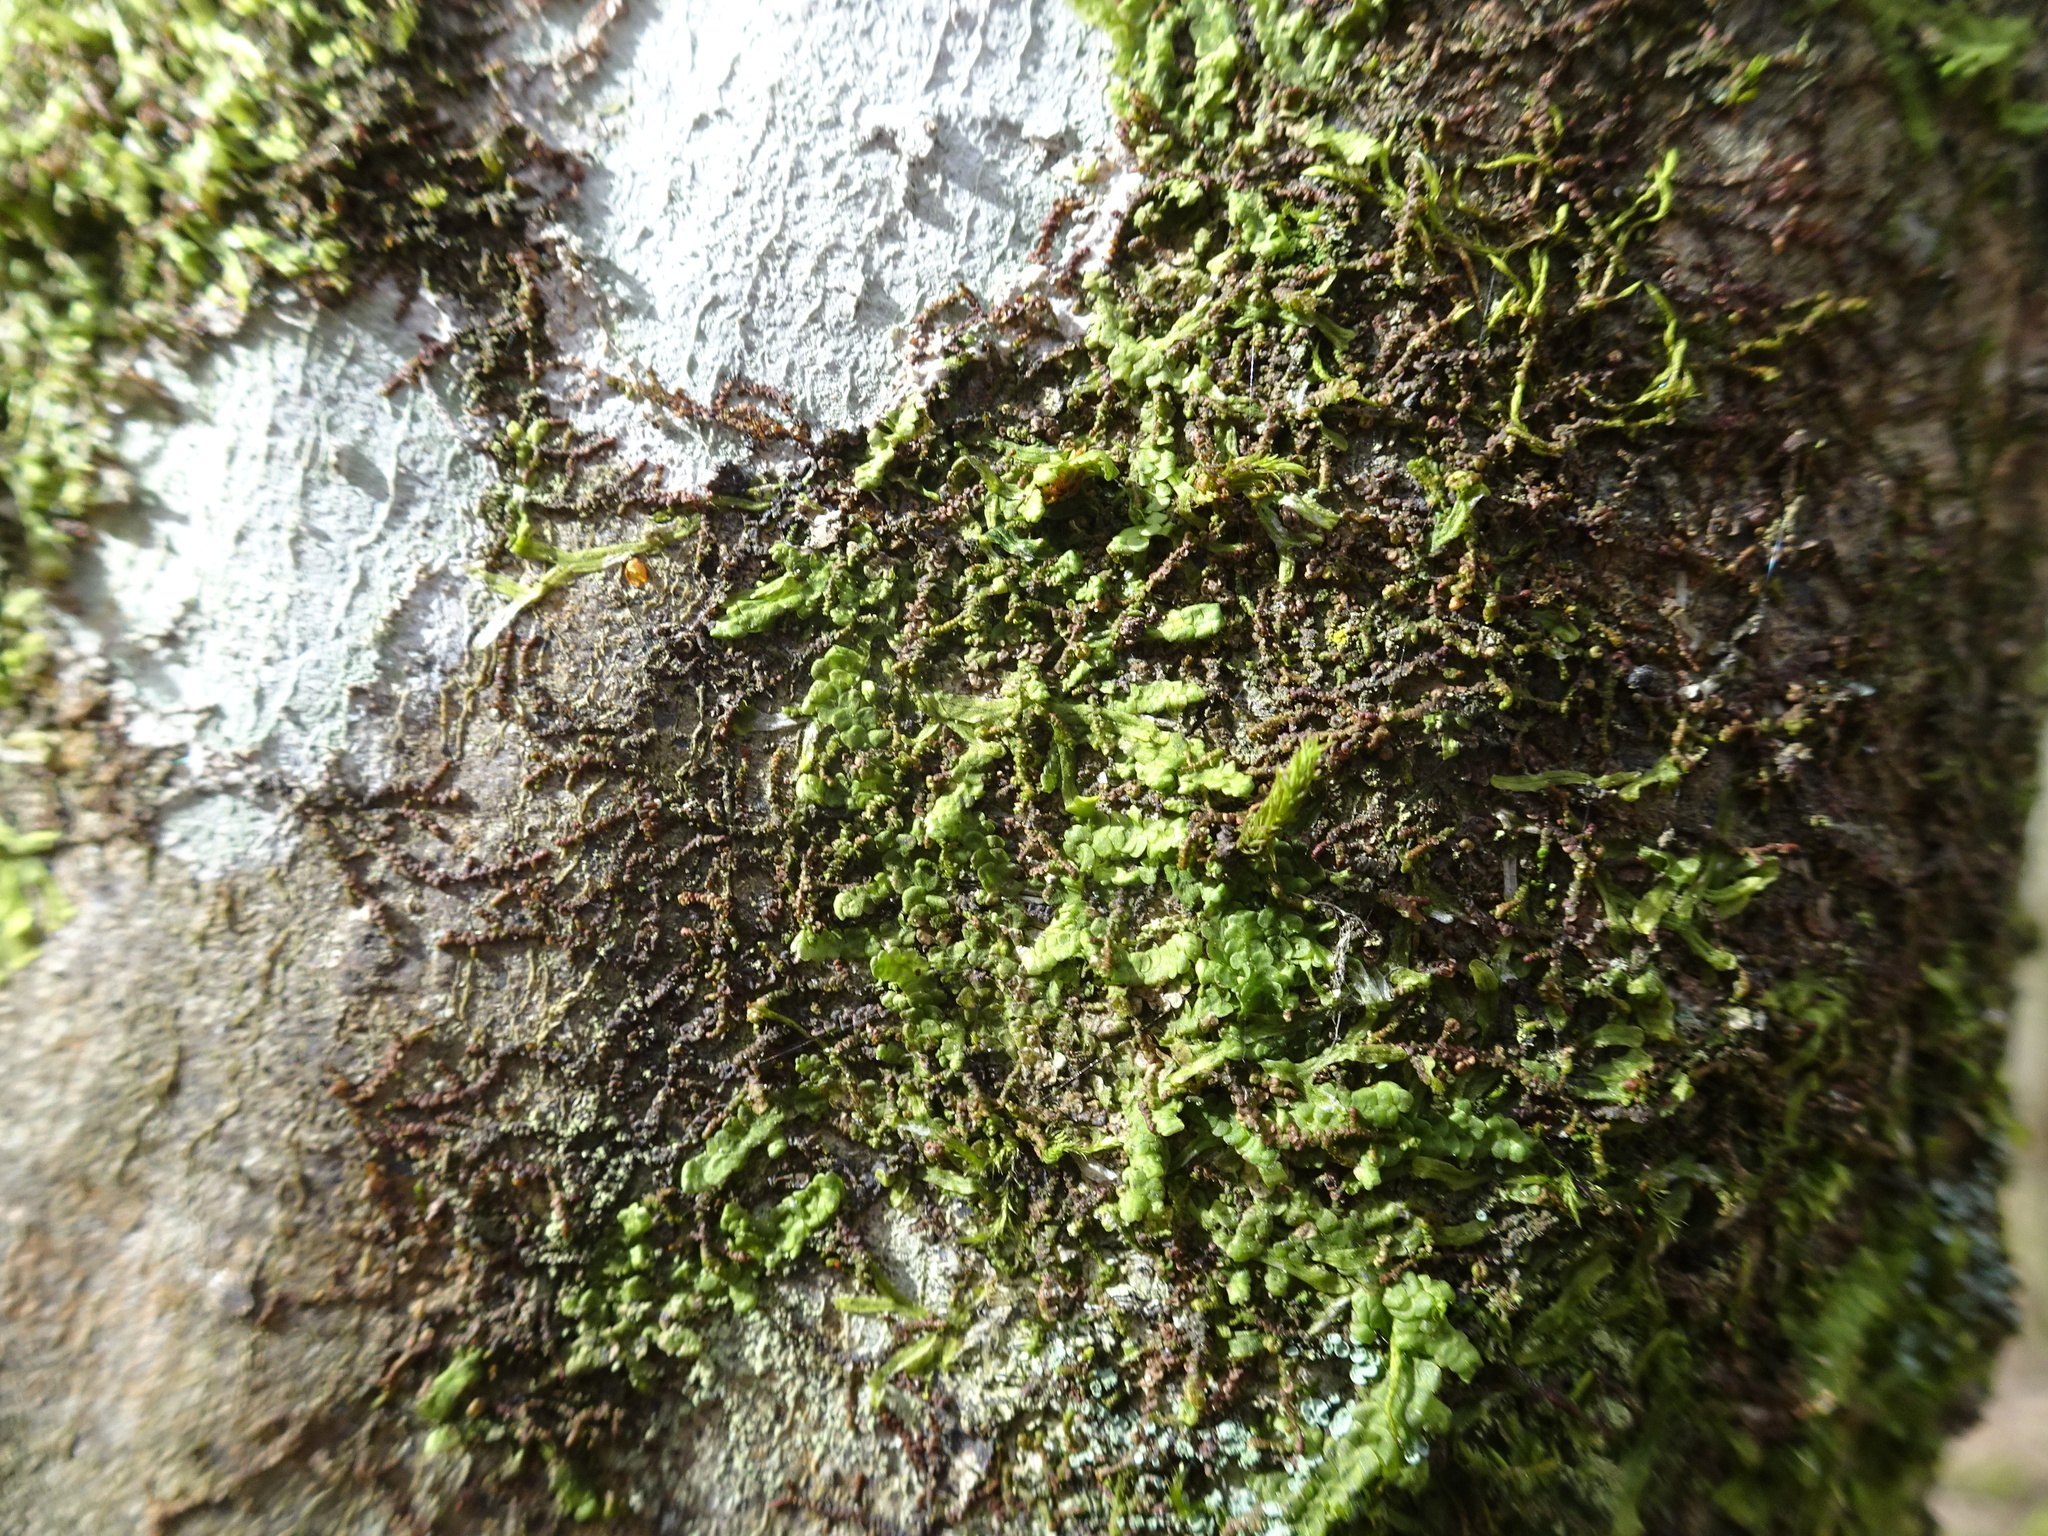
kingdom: Plantae
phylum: Marchantiophyta
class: Jungermanniopsida
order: Porellales
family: Radulaceae
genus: Radula
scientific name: Radula complanata
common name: Flat-leaved scalewort
